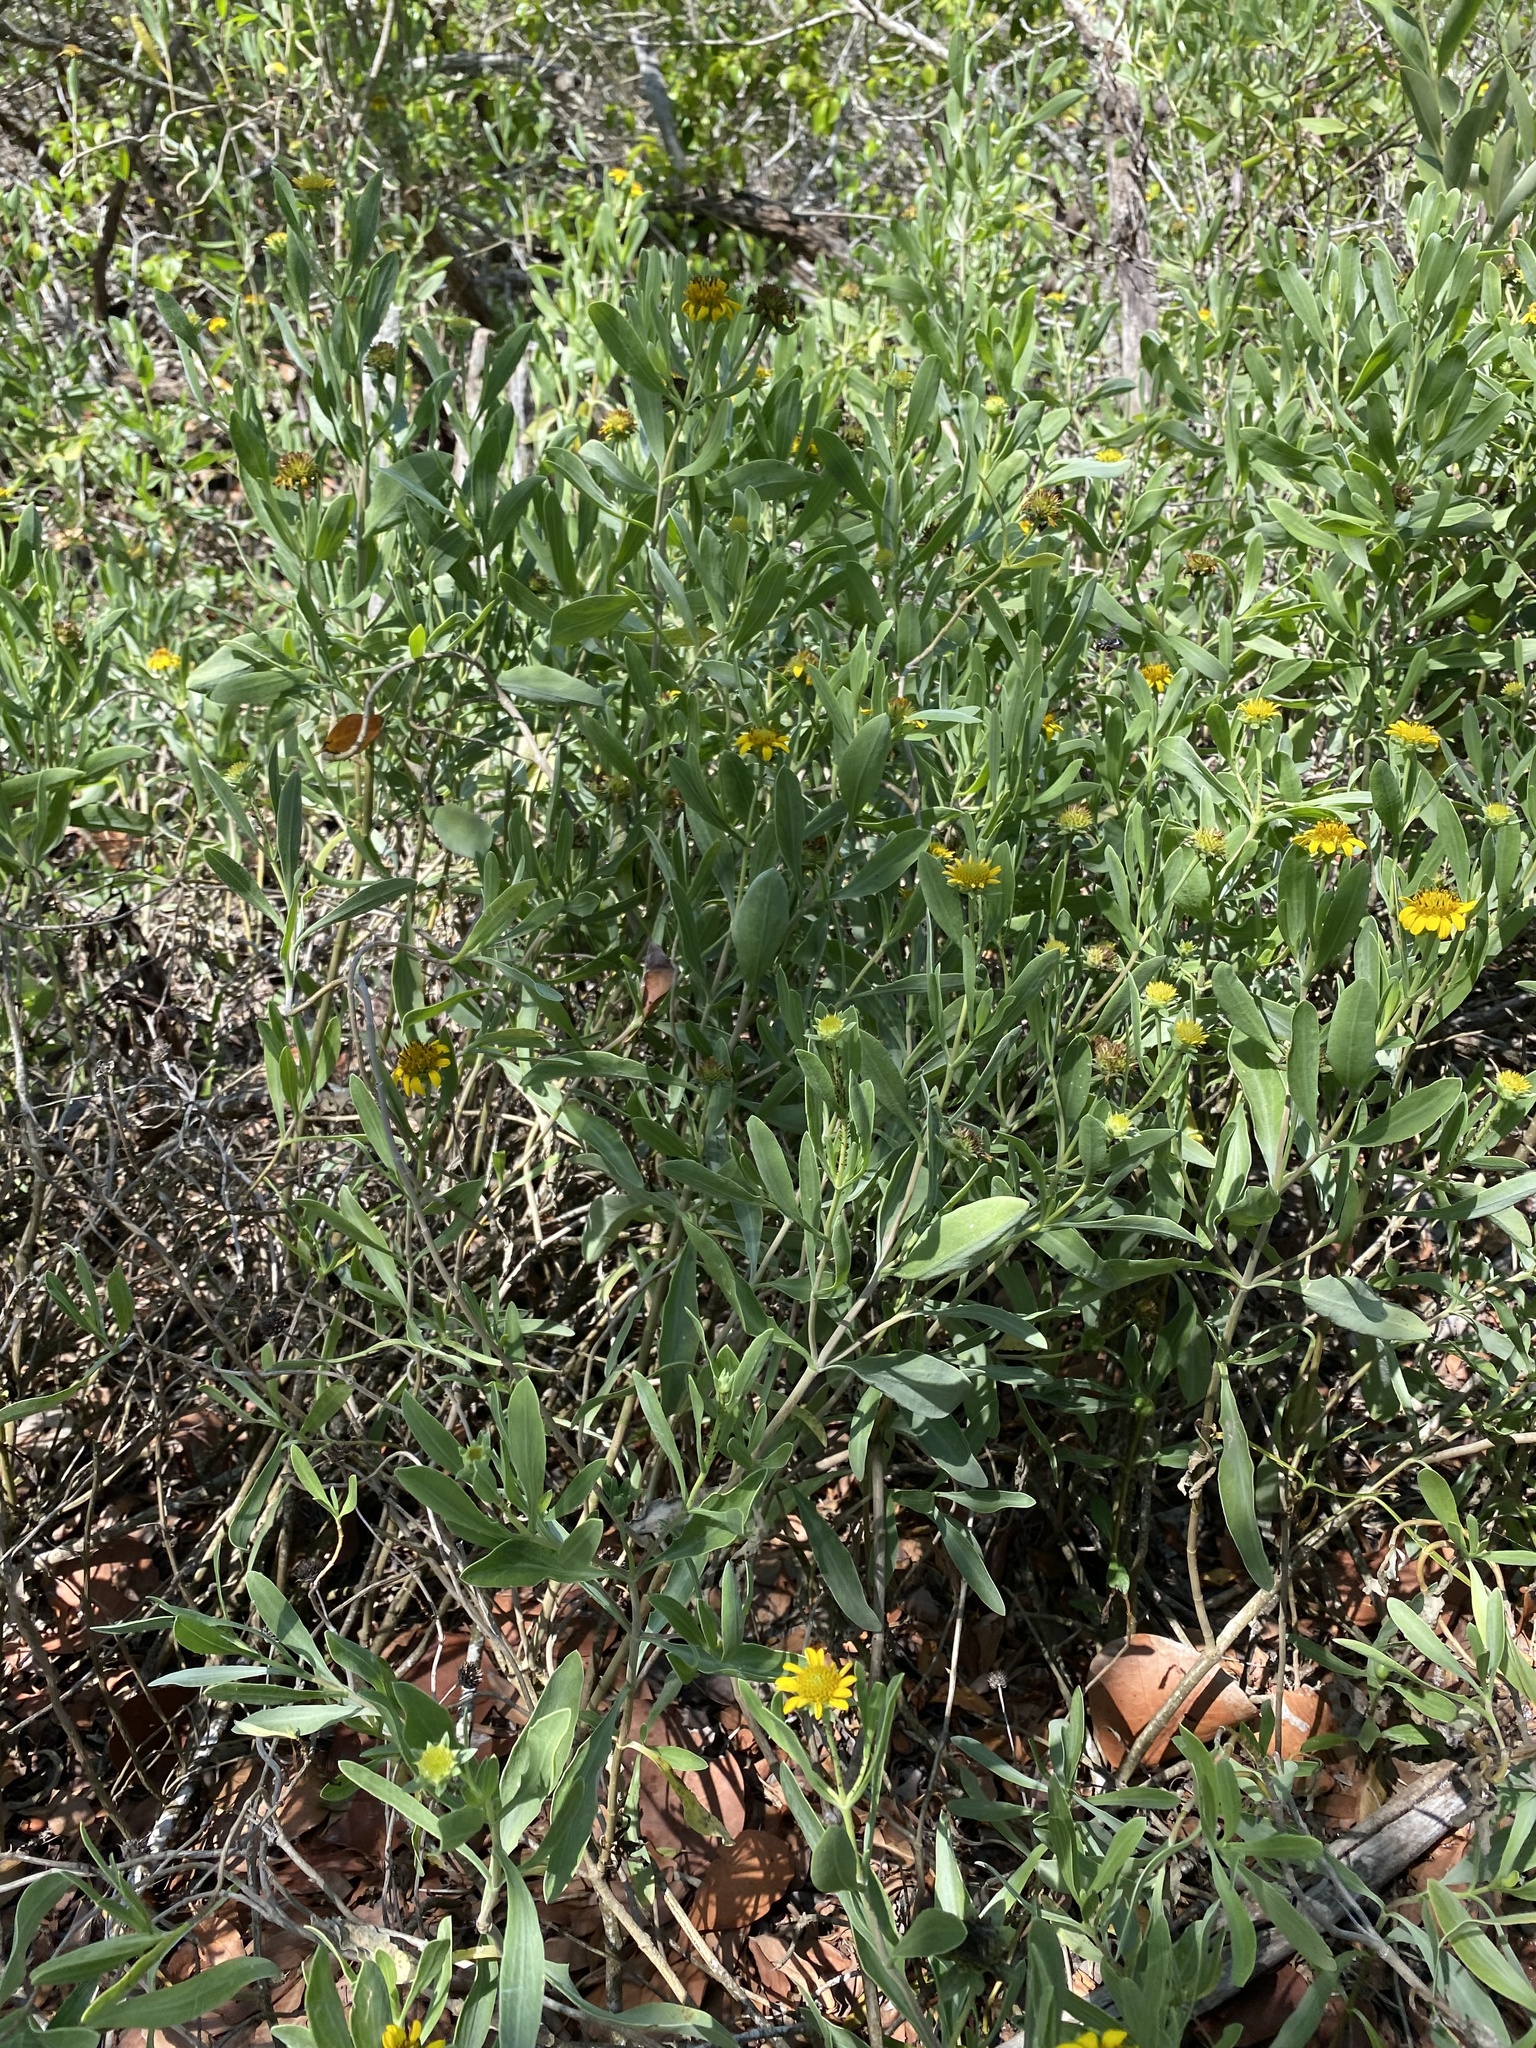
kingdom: Plantae
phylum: Tracheophyta
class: Magnoliopsida
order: Asterales
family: Asteraceae
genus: Borrichia
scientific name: Borrichia frutescens
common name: Sea oxeye
